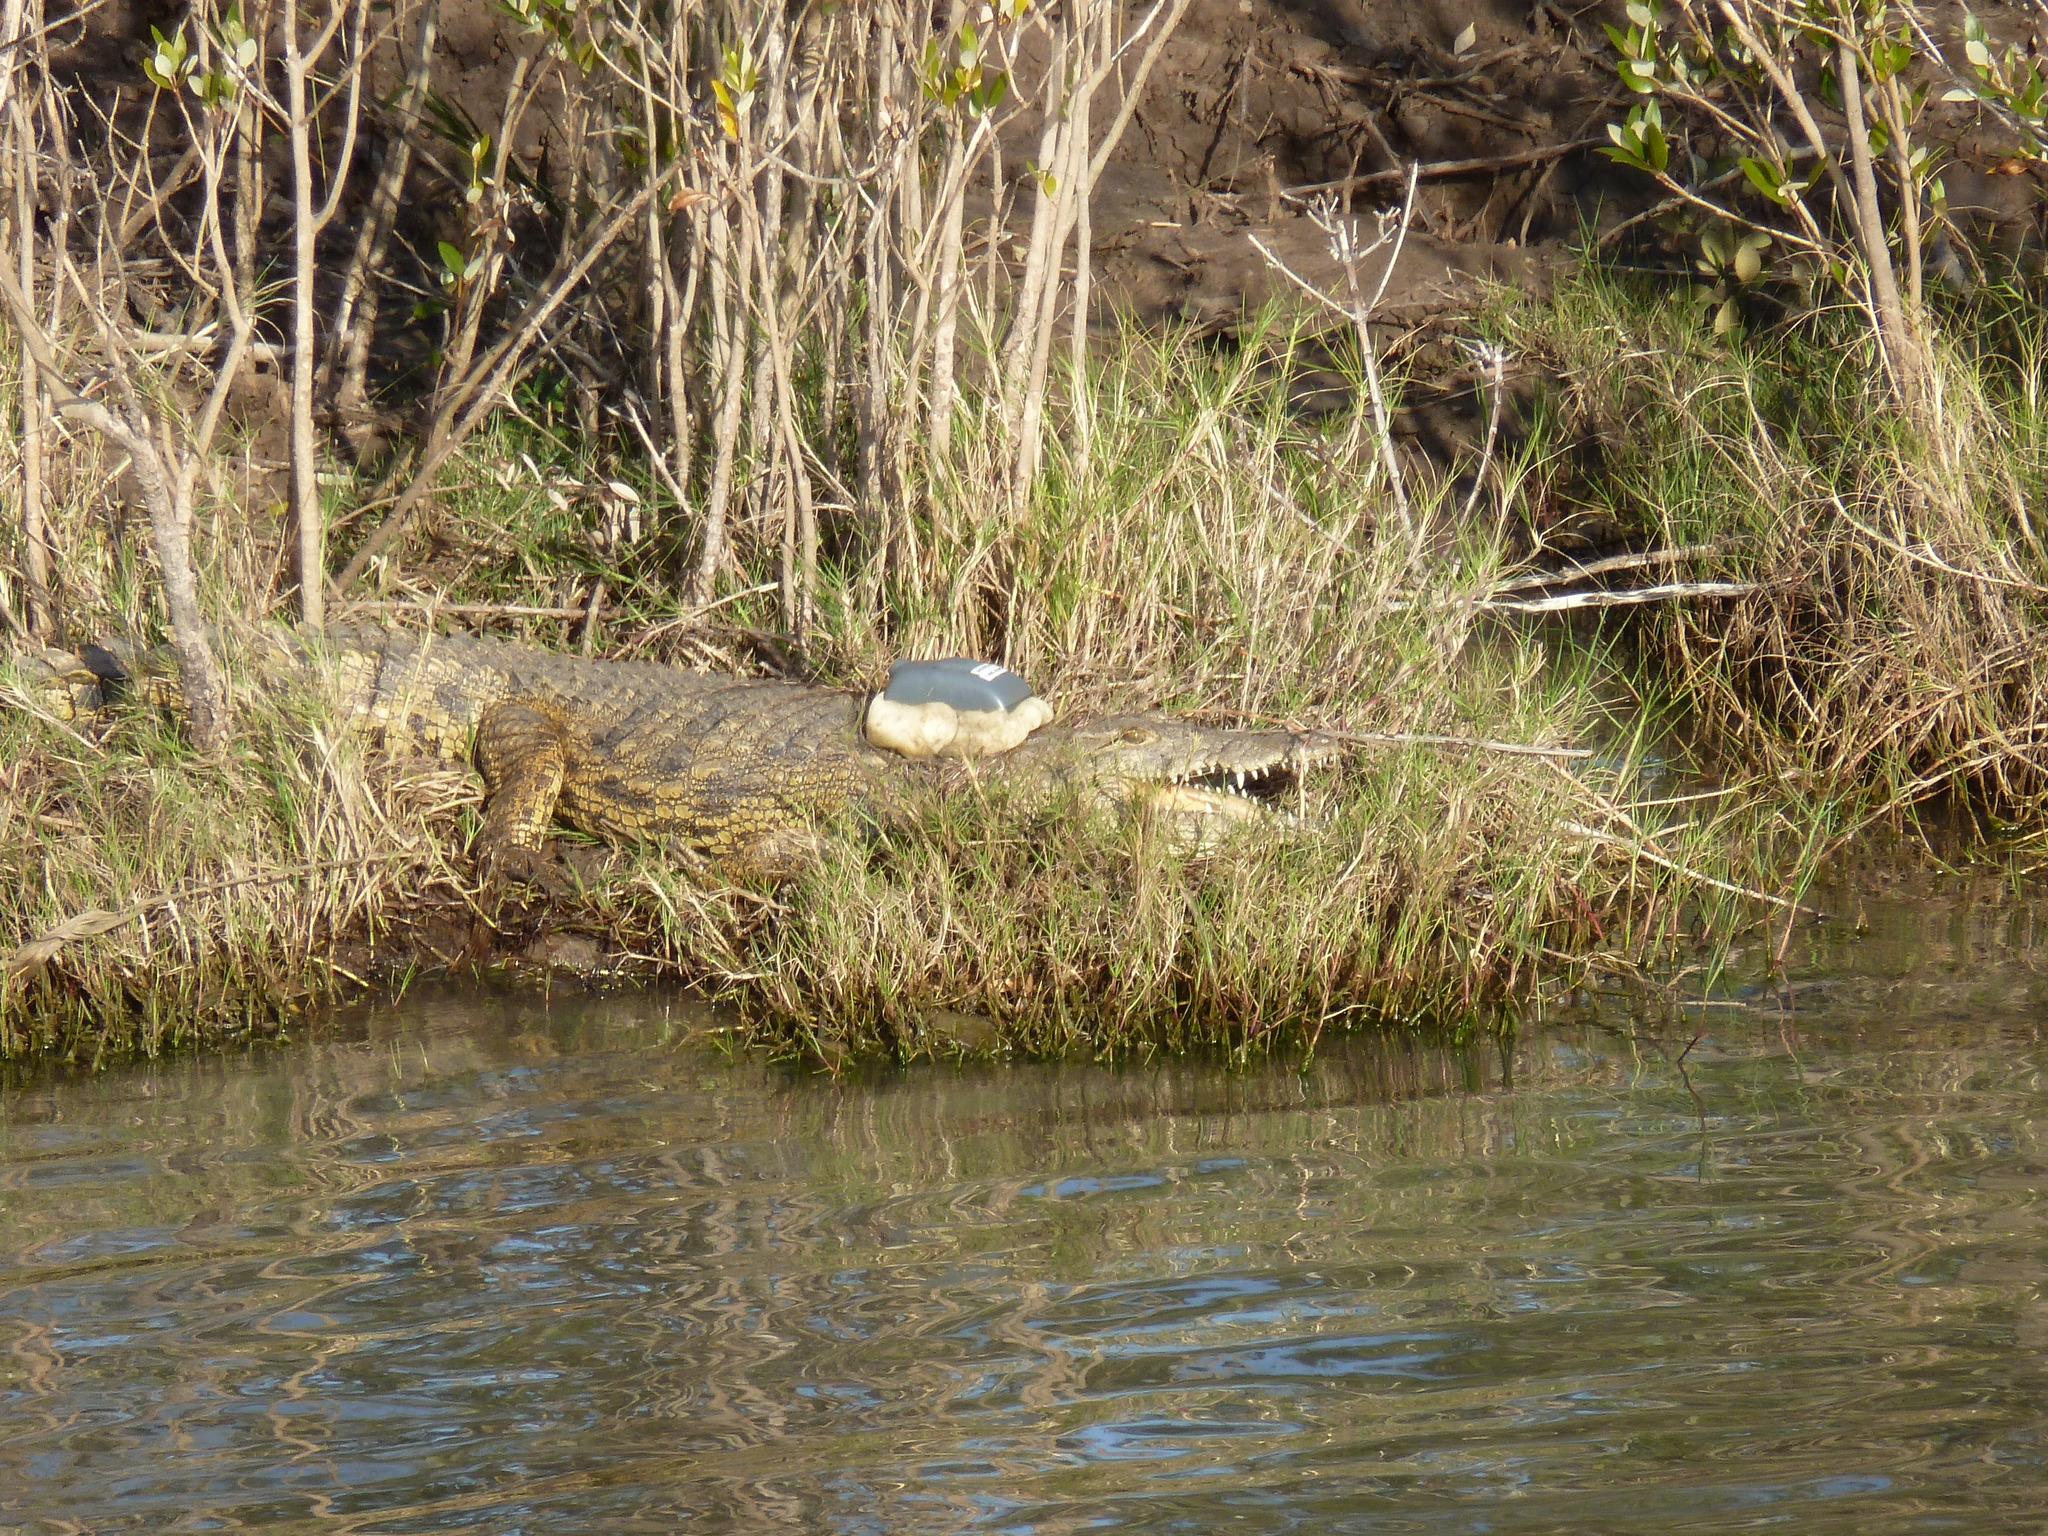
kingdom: Animalia
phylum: Chordata
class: Crocodylia
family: Crocodylidae
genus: Crocodylus
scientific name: Crocodylus niloticus
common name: Nile crocodile
